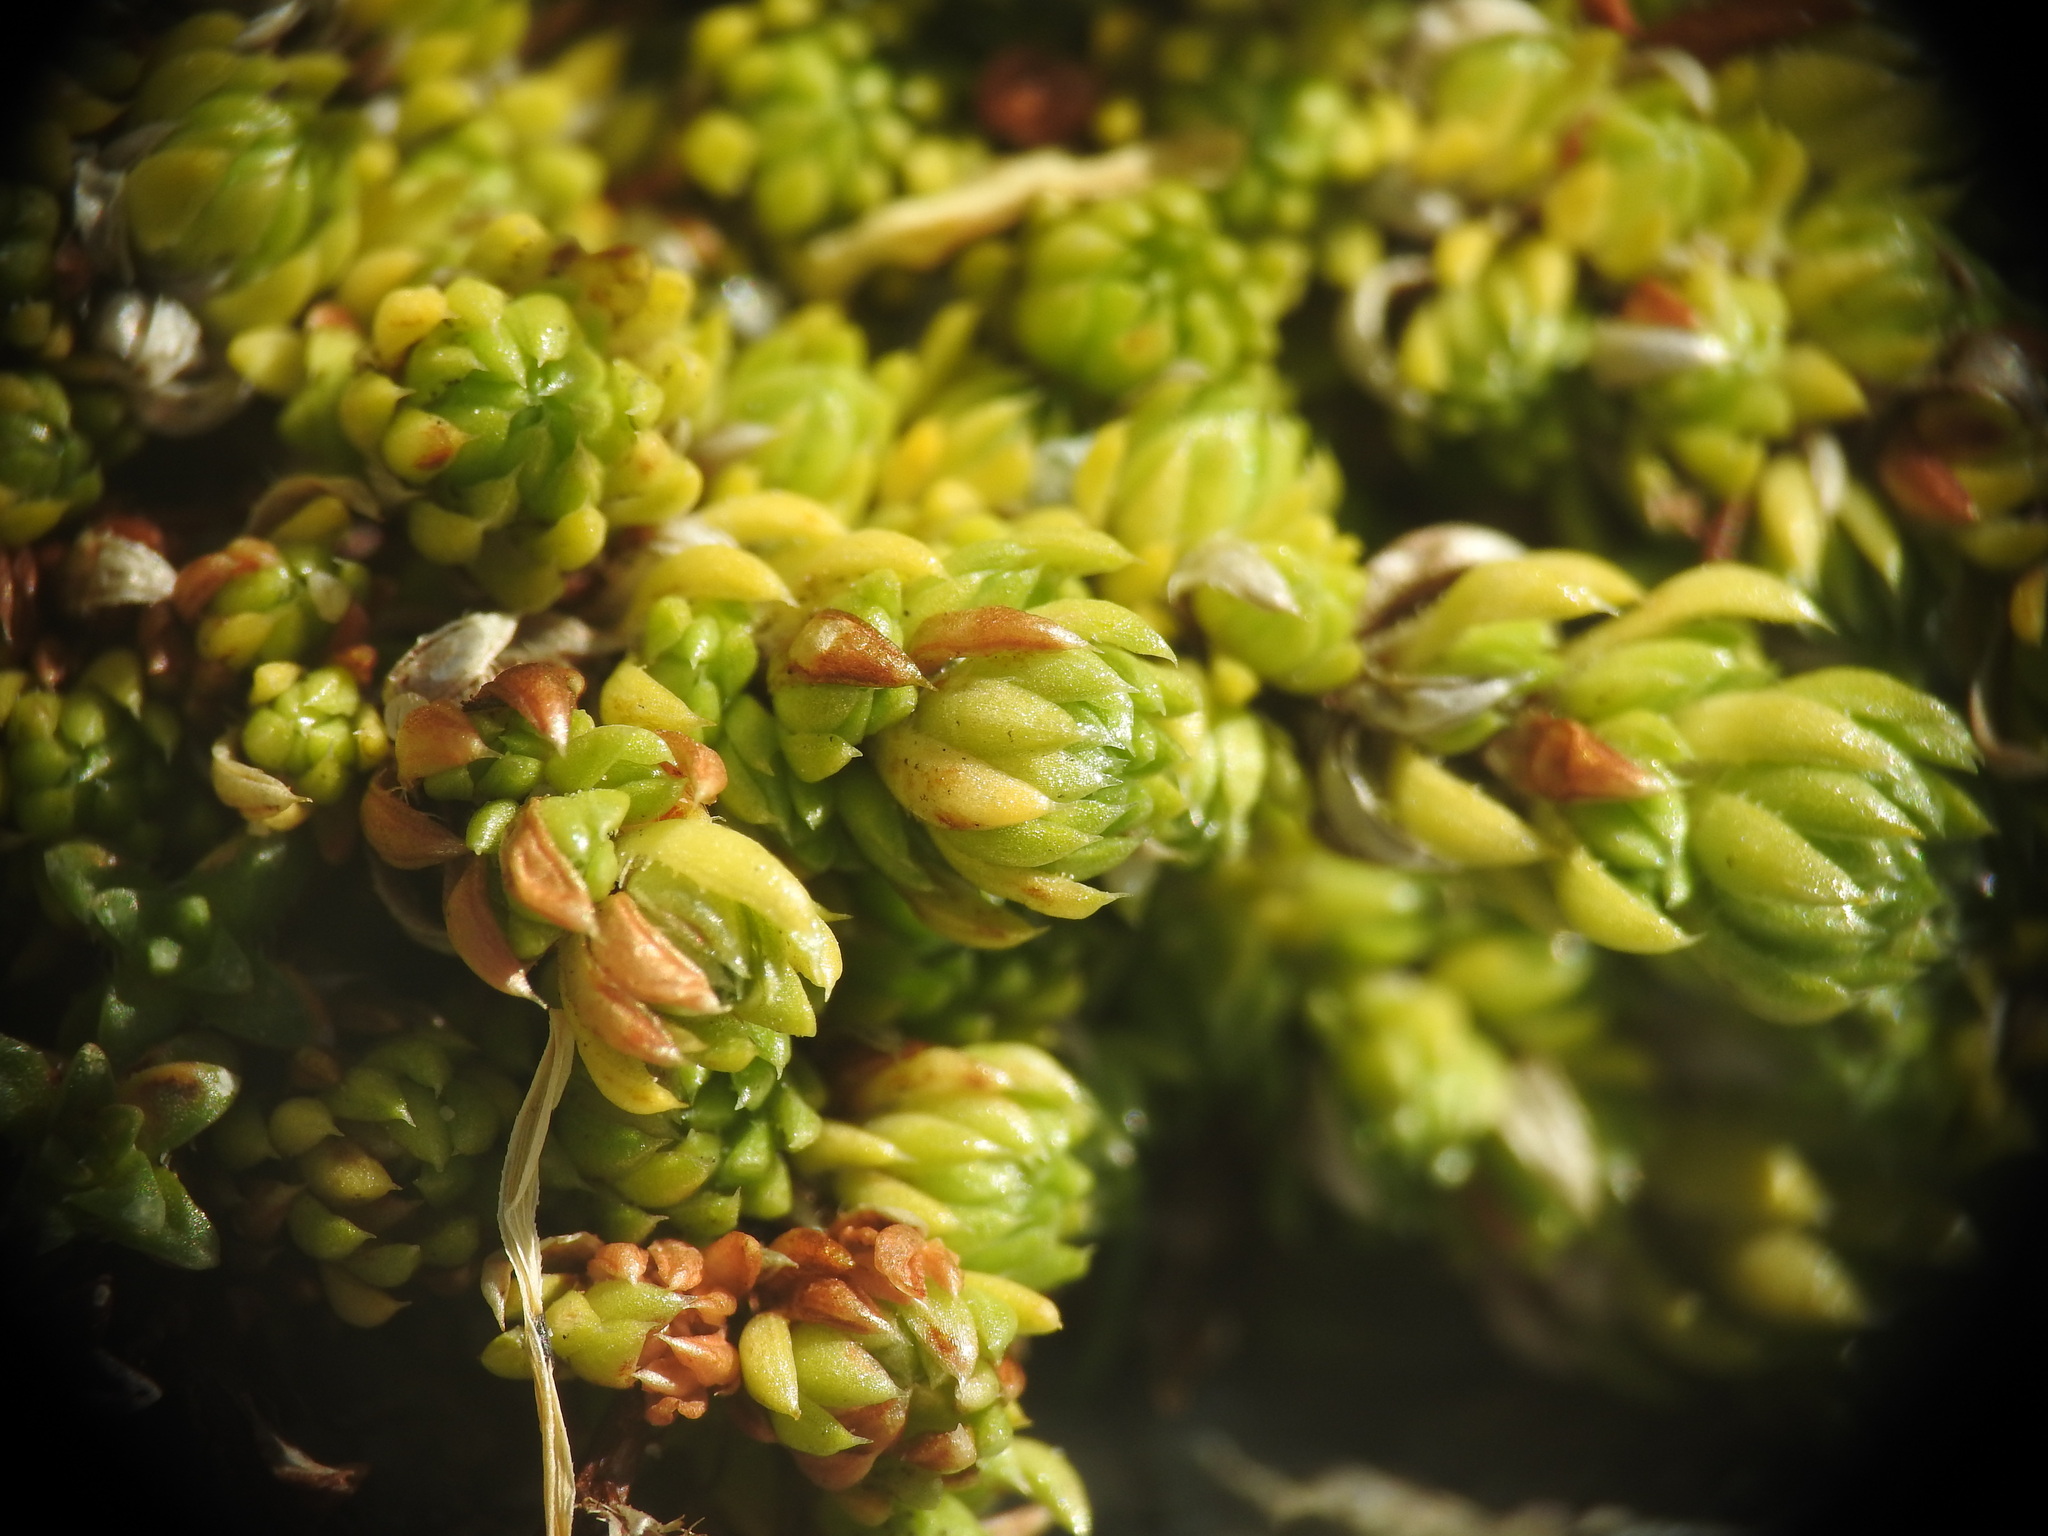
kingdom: Plantae
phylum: Tracheophyta
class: Magnoliopsida
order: Saxifragales
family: Saxifragaceae
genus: Saxifraga
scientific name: Saxifraga bryoides
